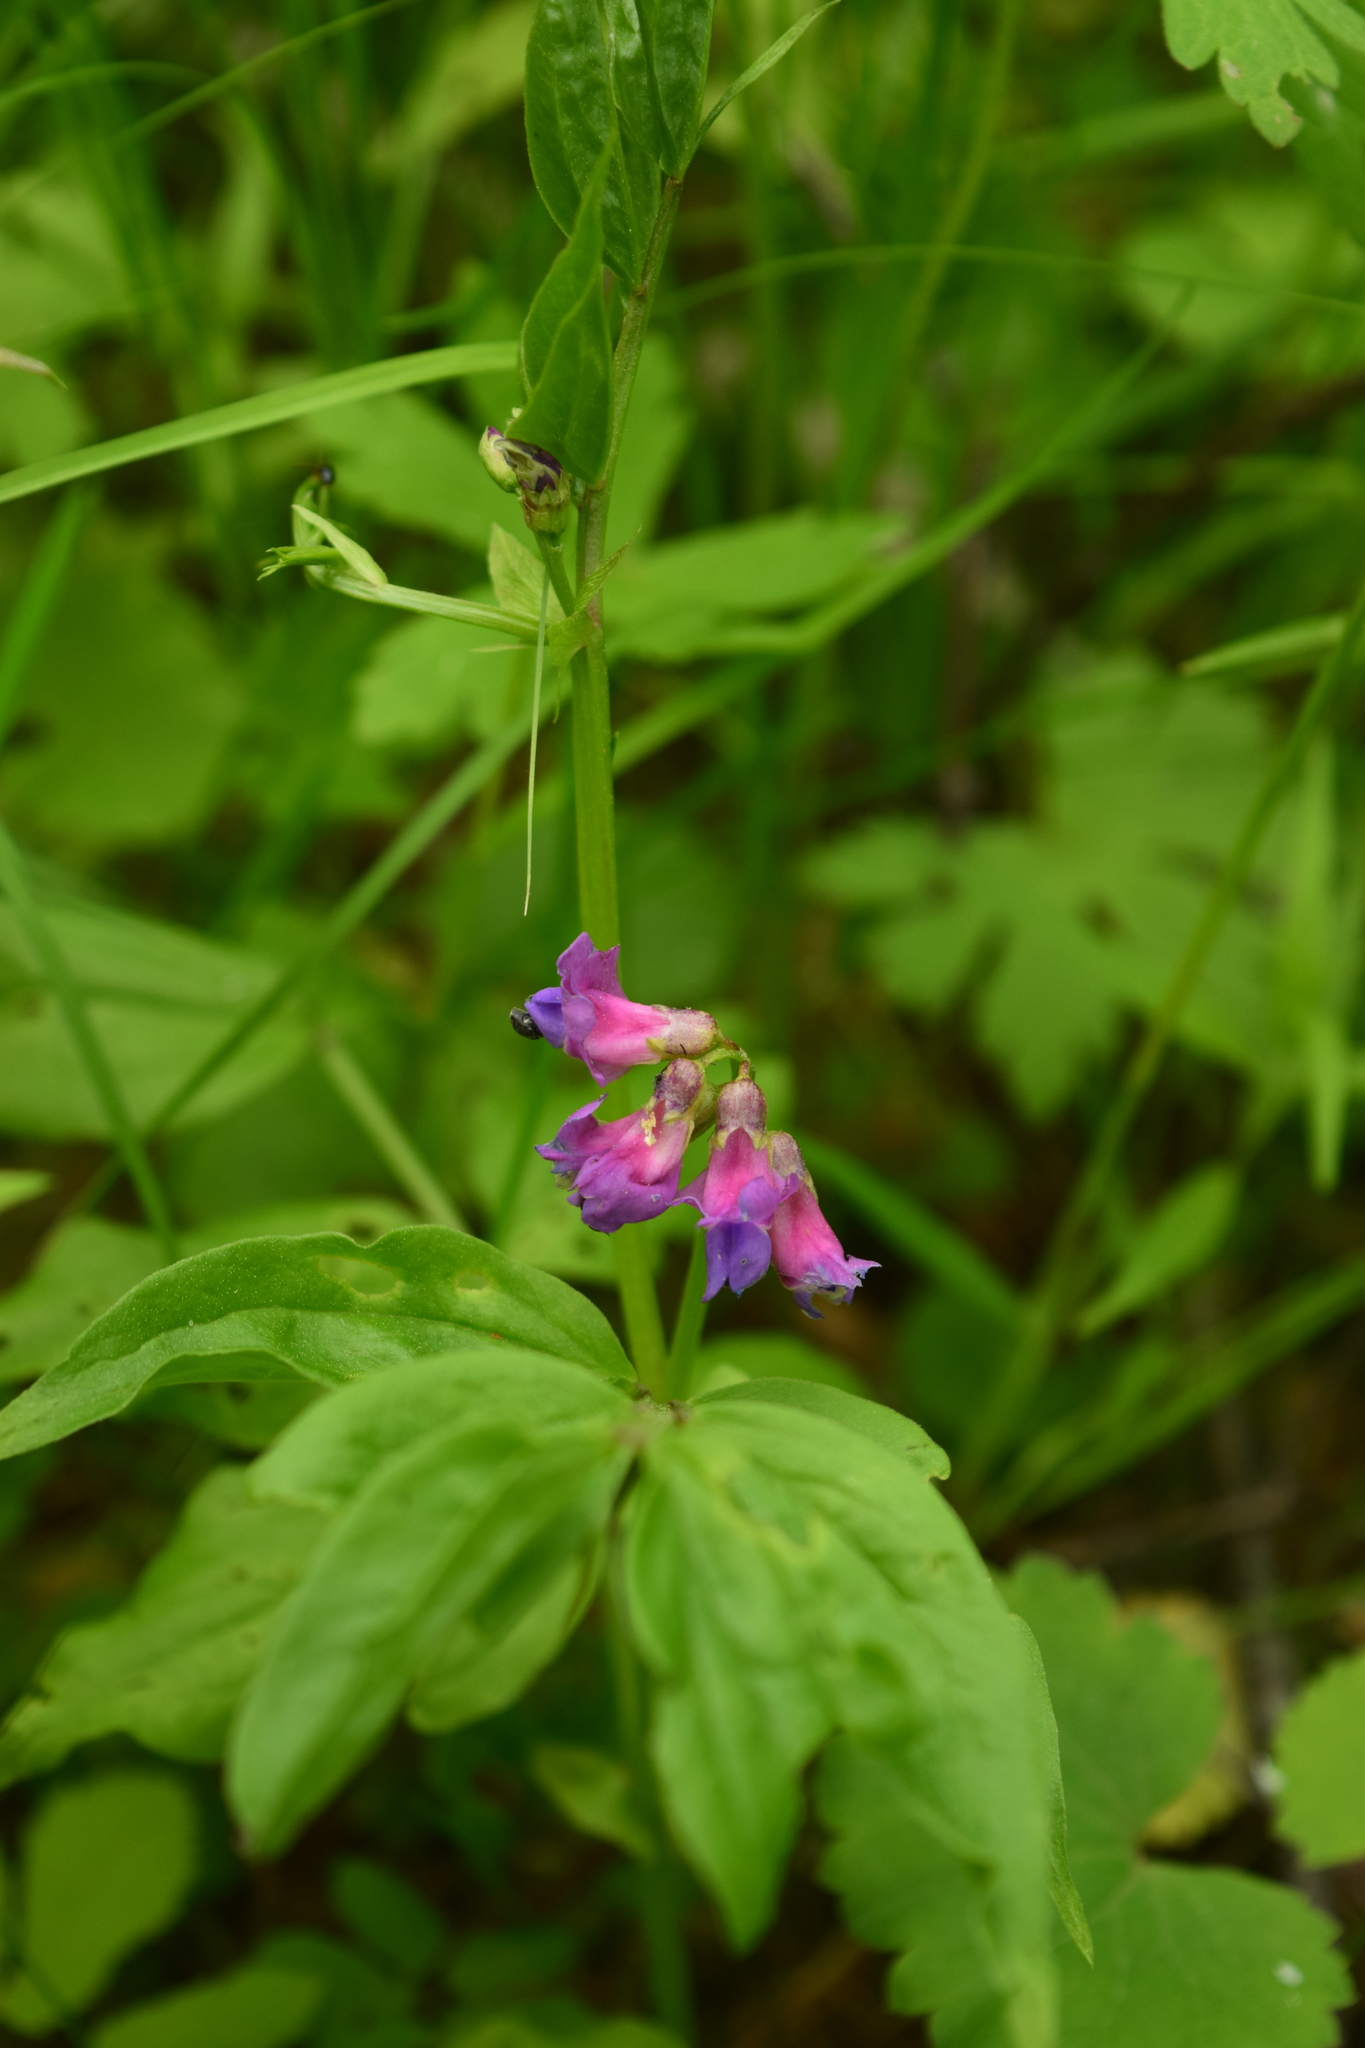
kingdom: Plantae
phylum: Tracheophyta
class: Magnoliopsida
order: Fabales
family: Fabaceae
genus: Lathyrus
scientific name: Lathyrus vernus
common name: Spring pea
